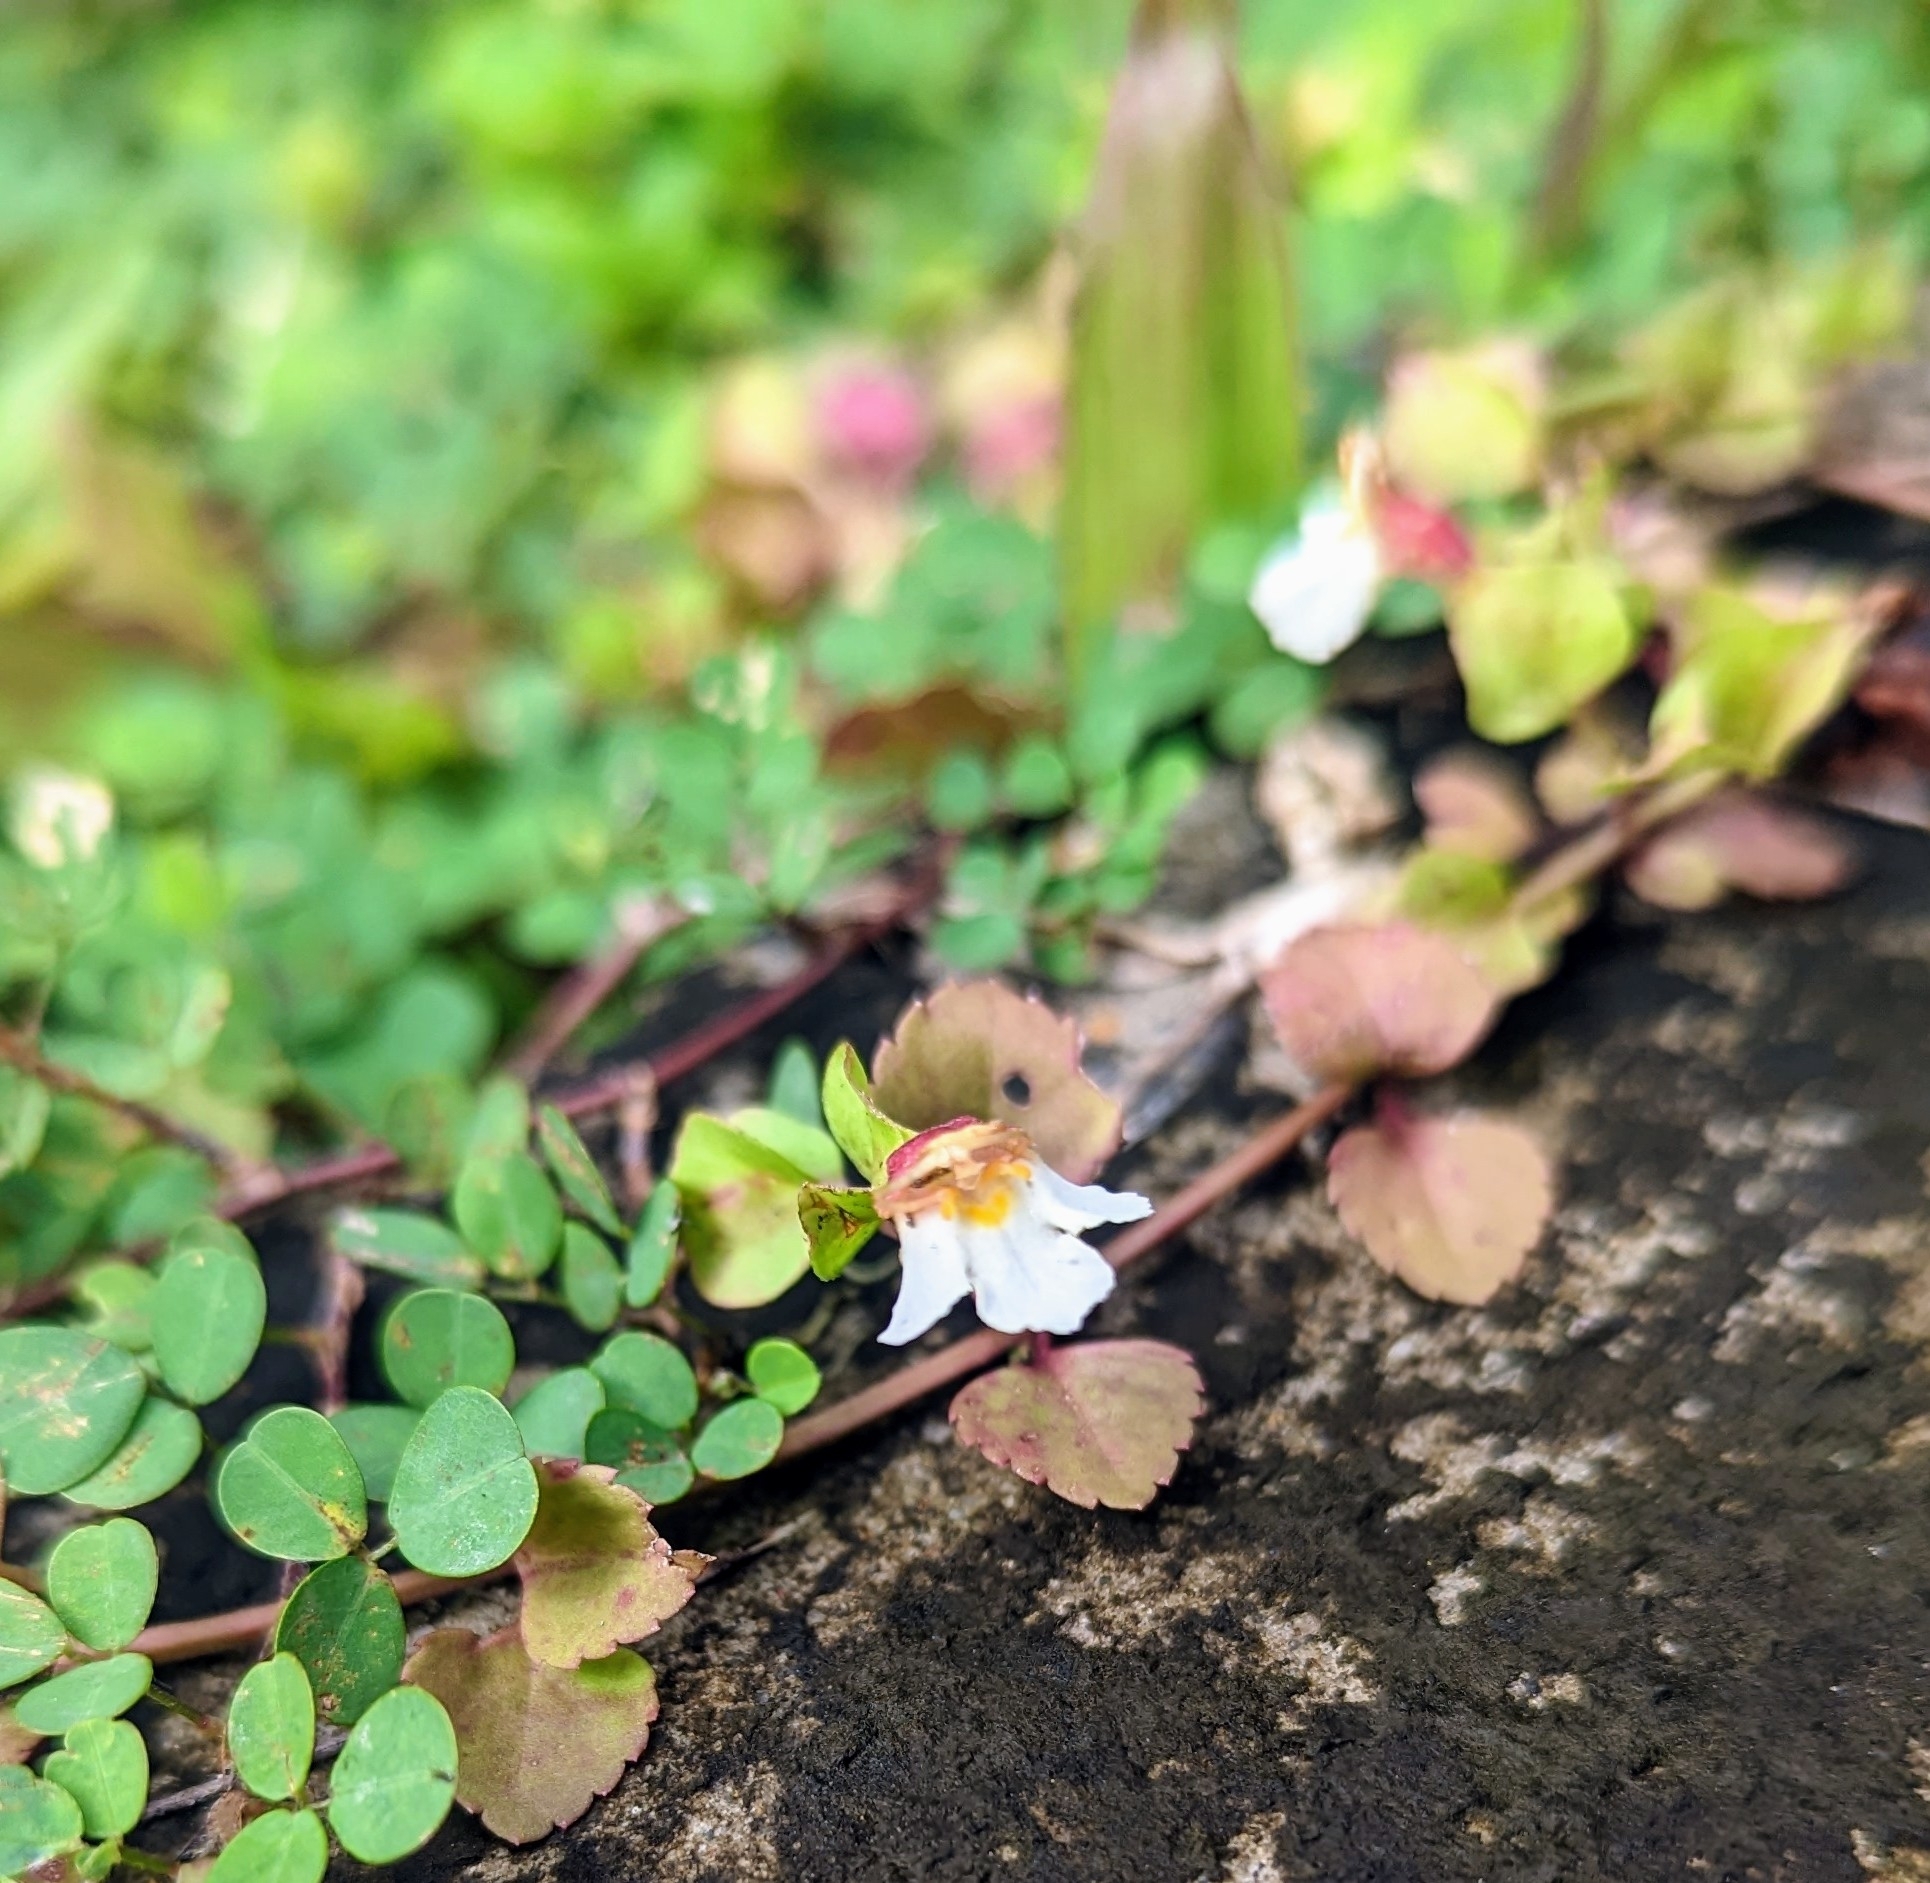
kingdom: Plantae
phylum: Tracheophyta
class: Magnoliopsida
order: Lamiales
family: Linderniaceae
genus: Legazpia
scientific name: Legazpia polygonoides
